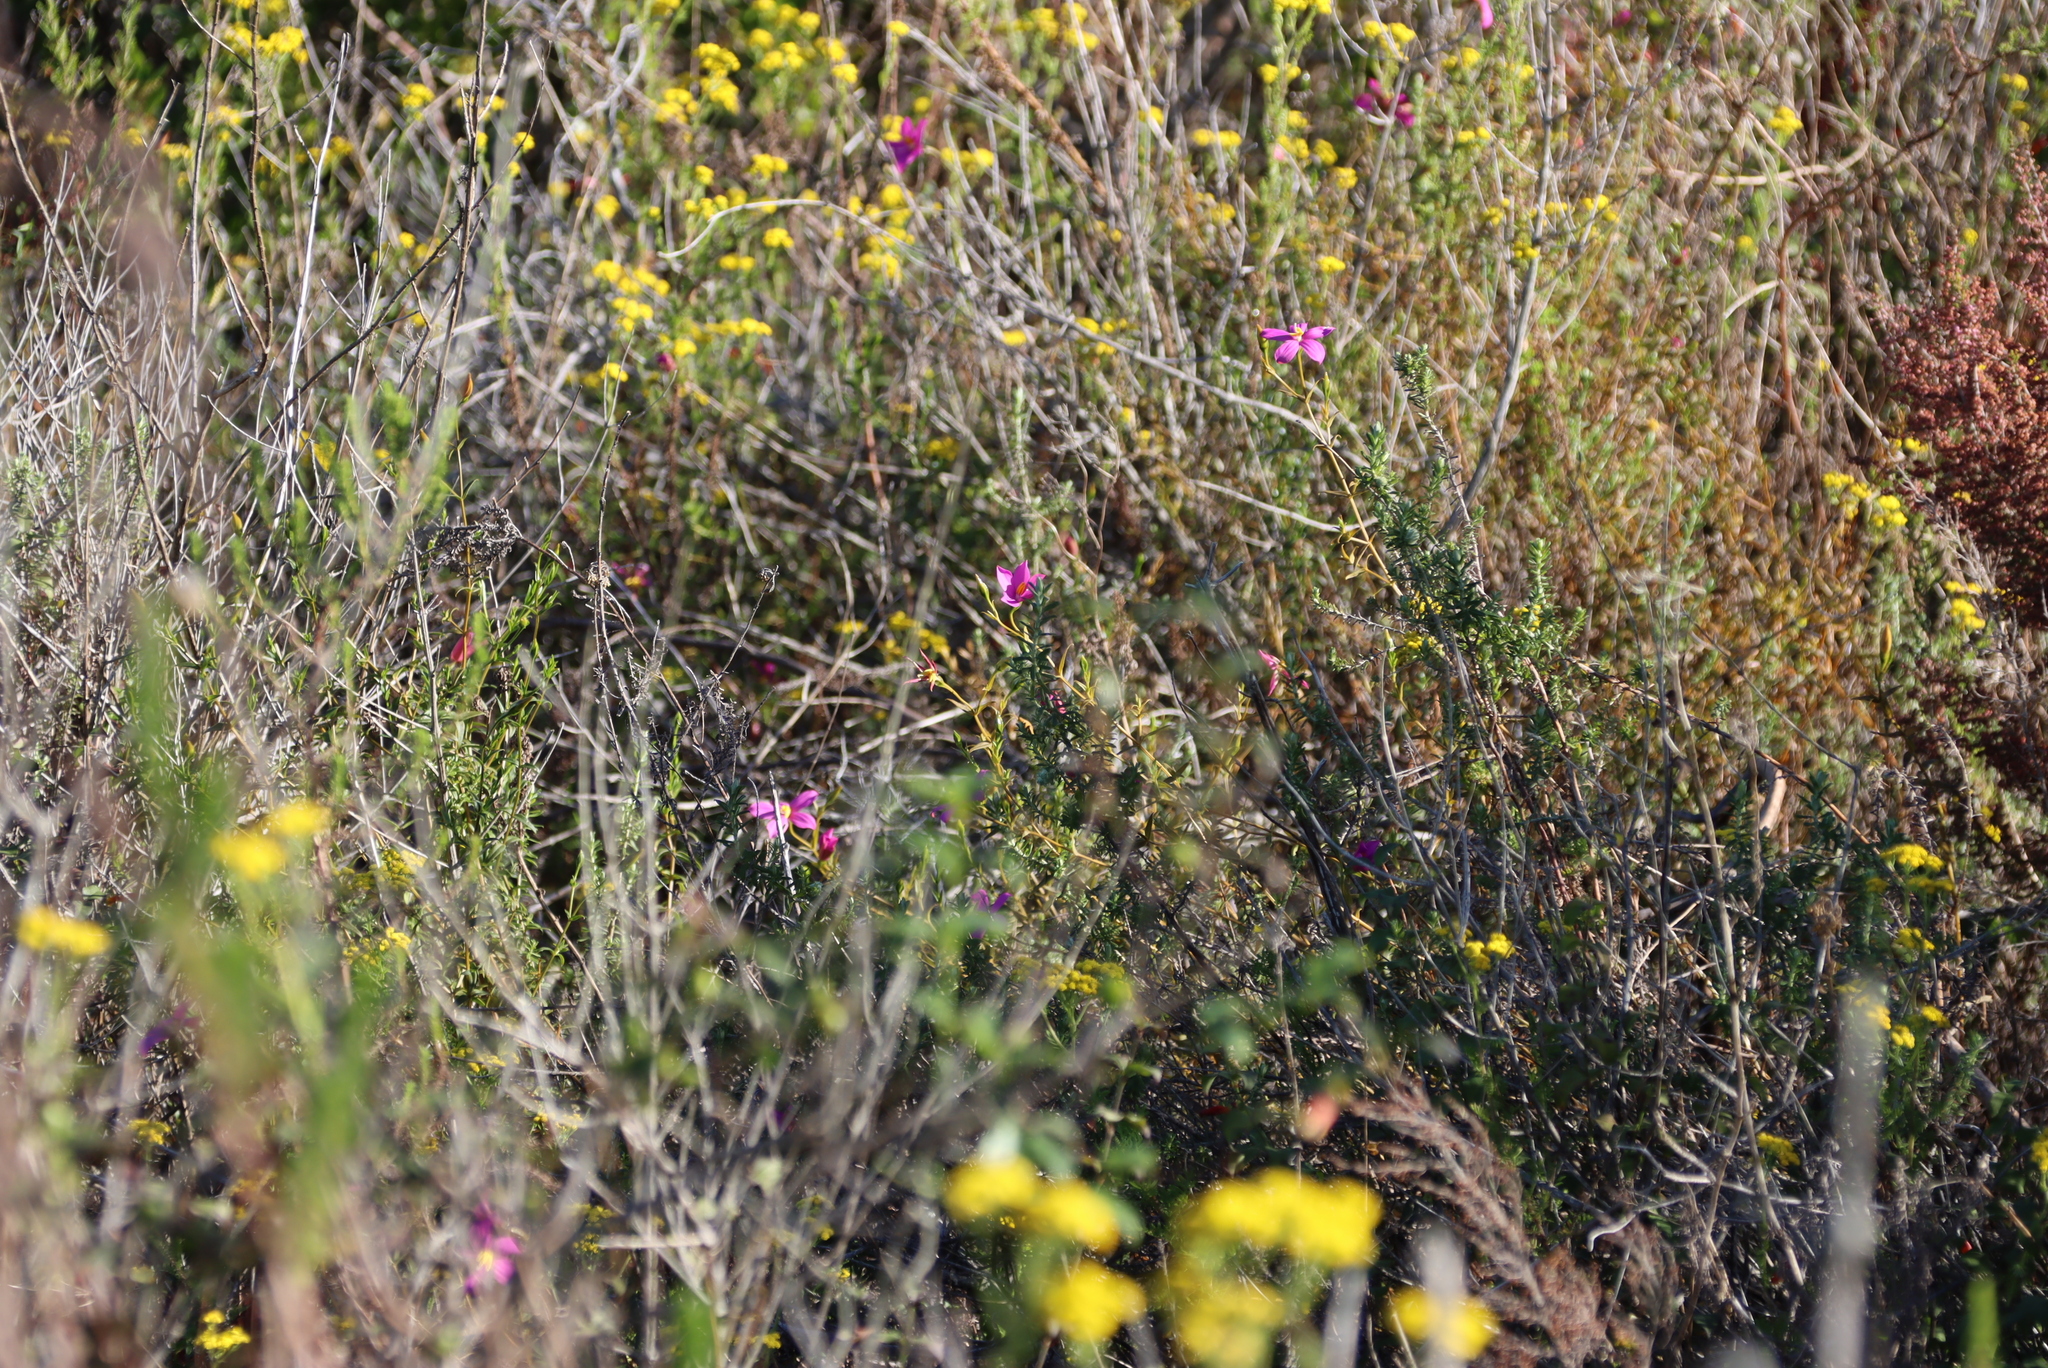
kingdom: Plantae
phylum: Tracheophyta
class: Magnoliopsida
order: Gentianales
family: Gentianaceae
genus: Chironia
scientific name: Chironia tetragona
